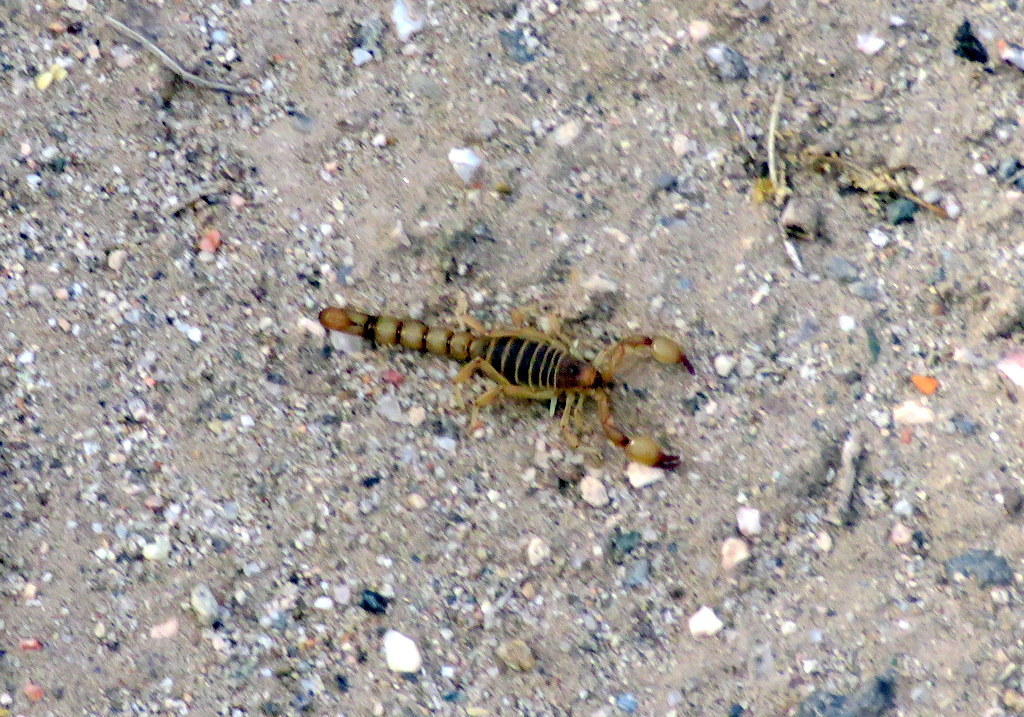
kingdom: Animalia
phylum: Arthropoda
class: Arachnida
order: Scorpiones
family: Bothriuridae
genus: Bothriurus
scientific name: Bothriurus olaen
